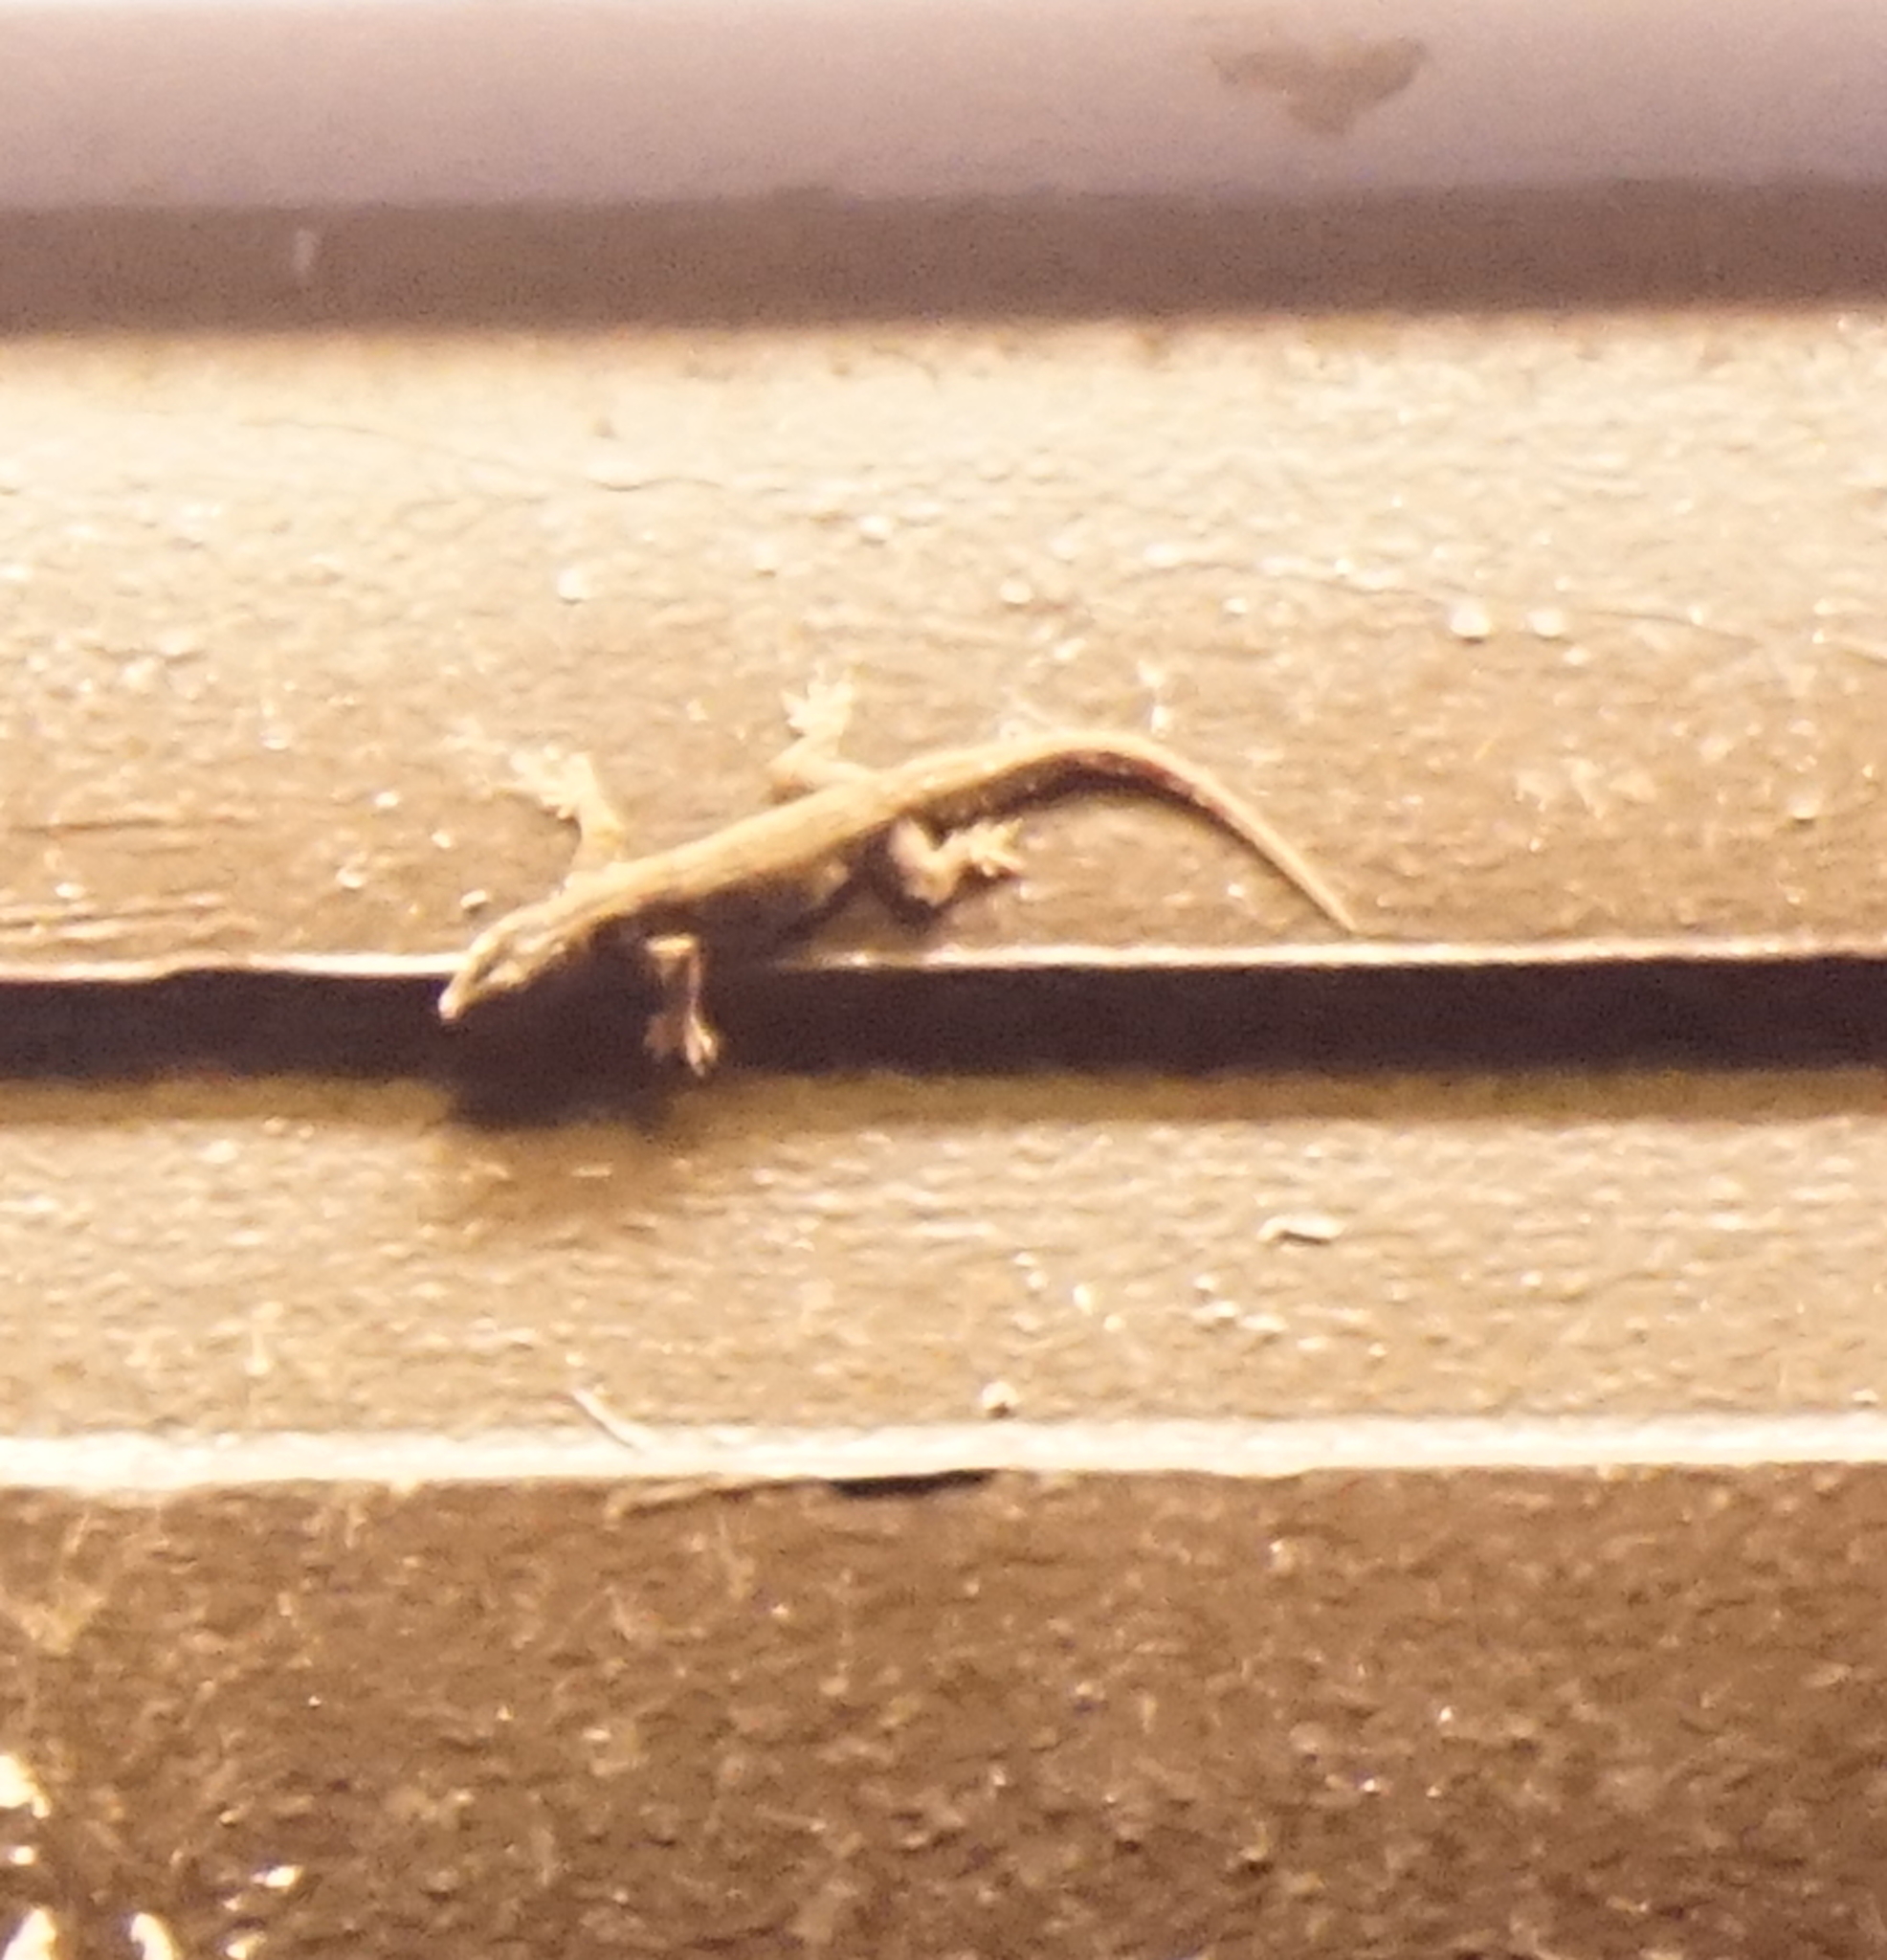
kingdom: Animalia
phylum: Chordata
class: Squamata
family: Gekkonidae
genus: Hemidactylus
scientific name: Hemidactylus platyurus
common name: Flat-tailed house gecko
